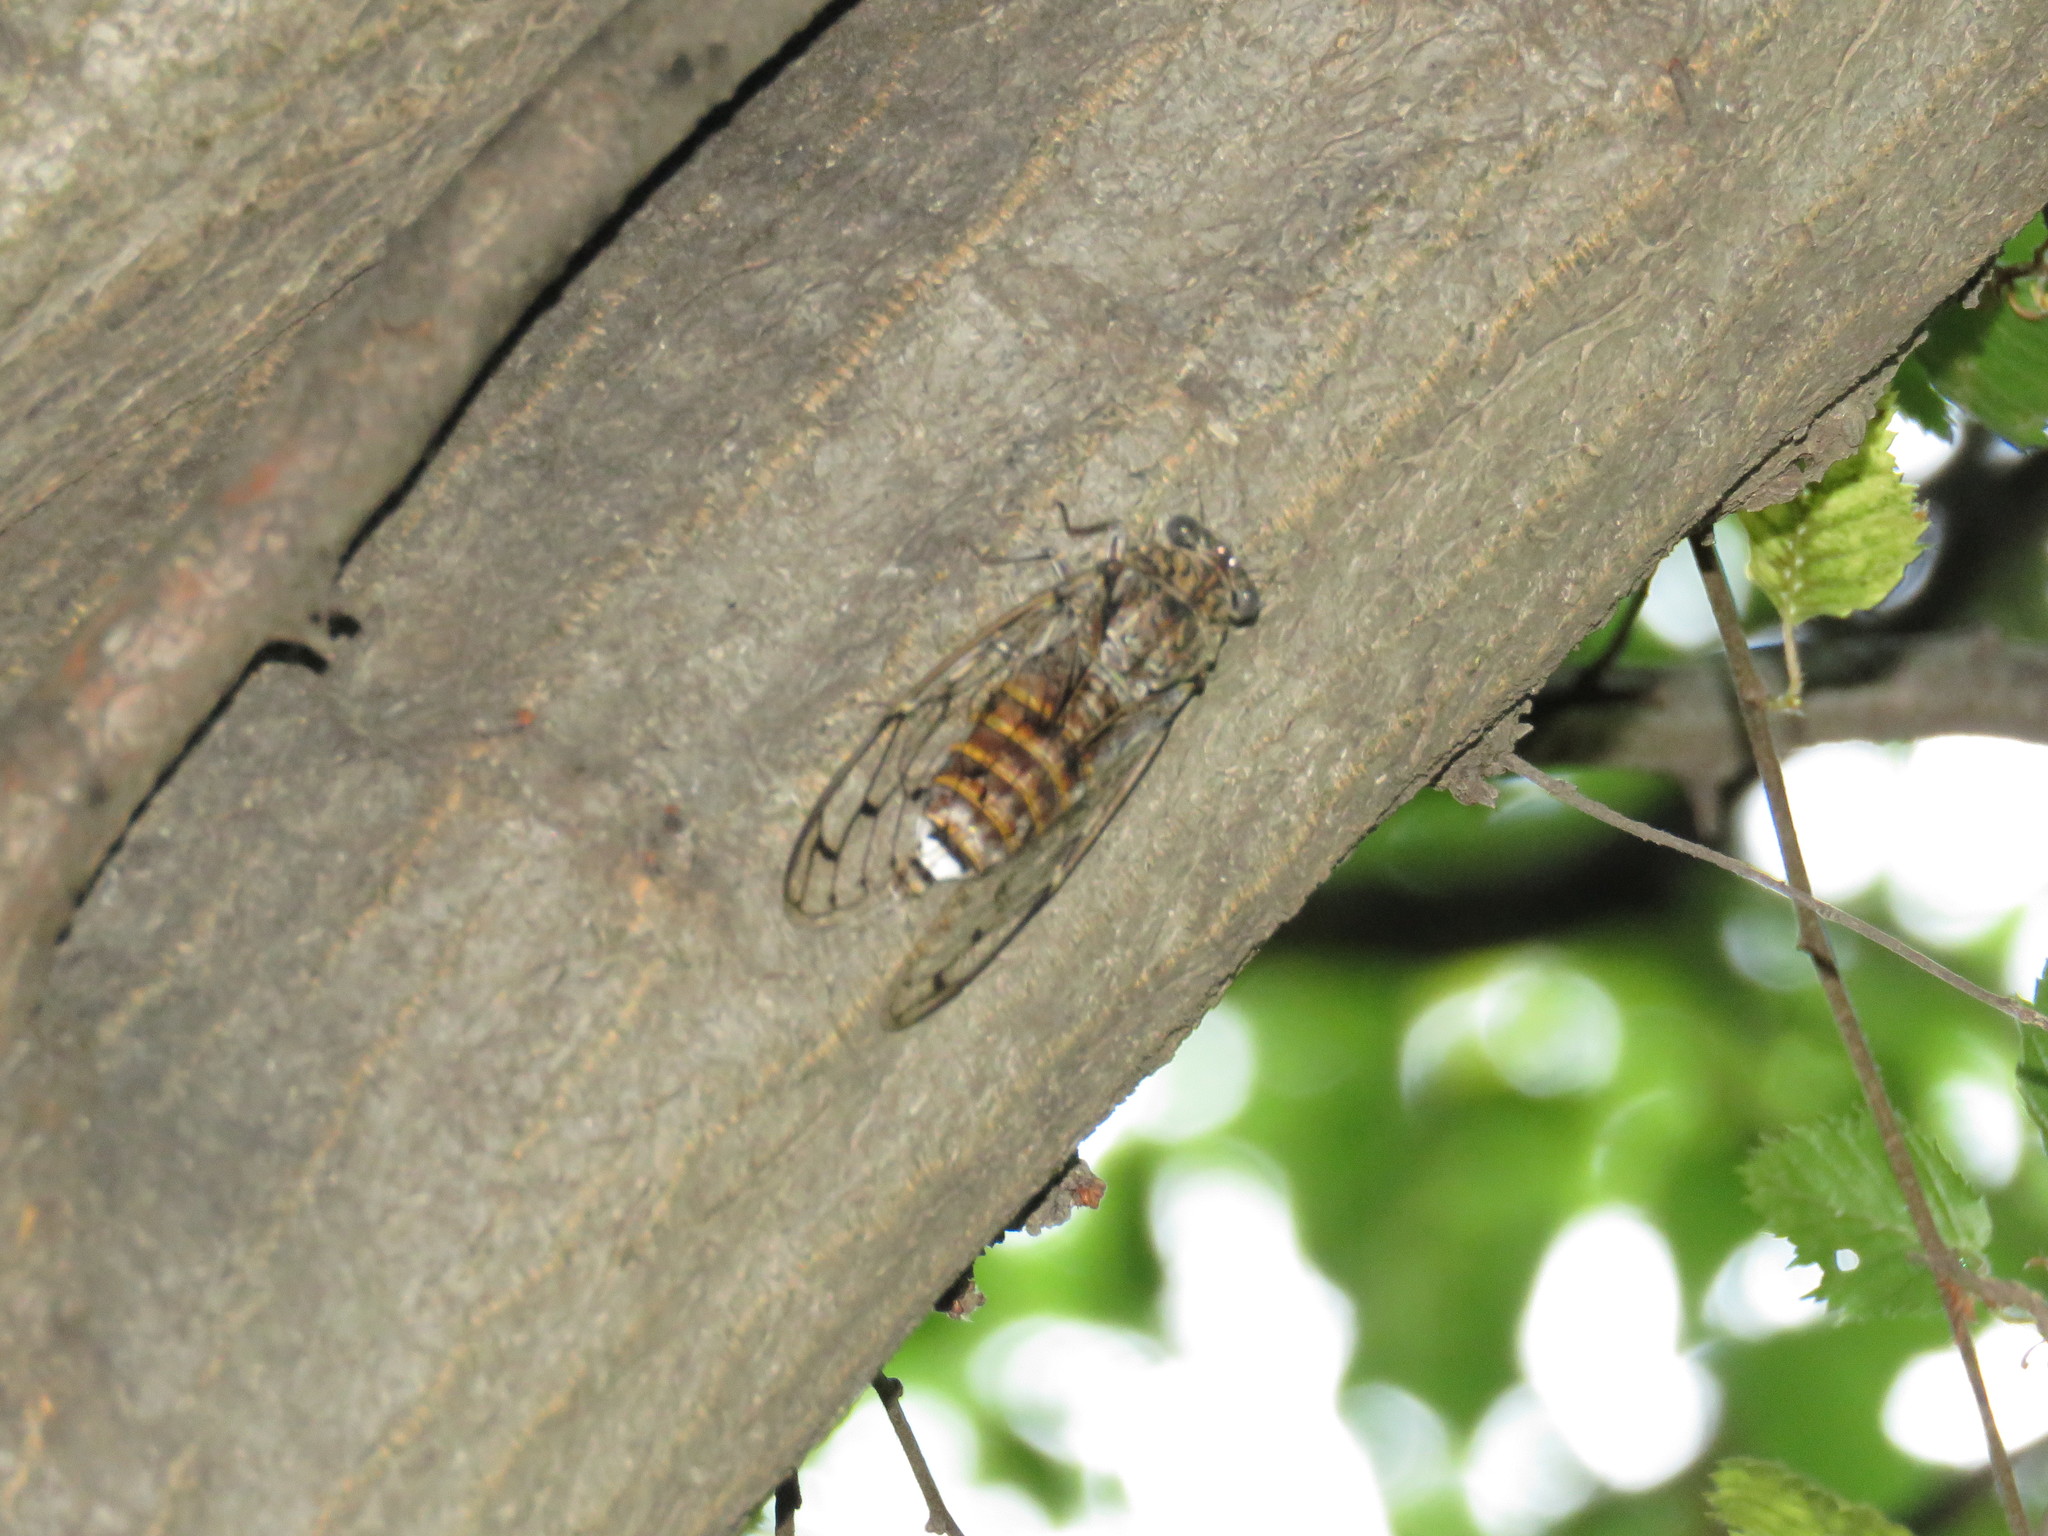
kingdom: Animalia
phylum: Arthropoda
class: Insecta
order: Hemiptera
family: Cicadidae
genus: Cicada
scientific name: Cicada orni
